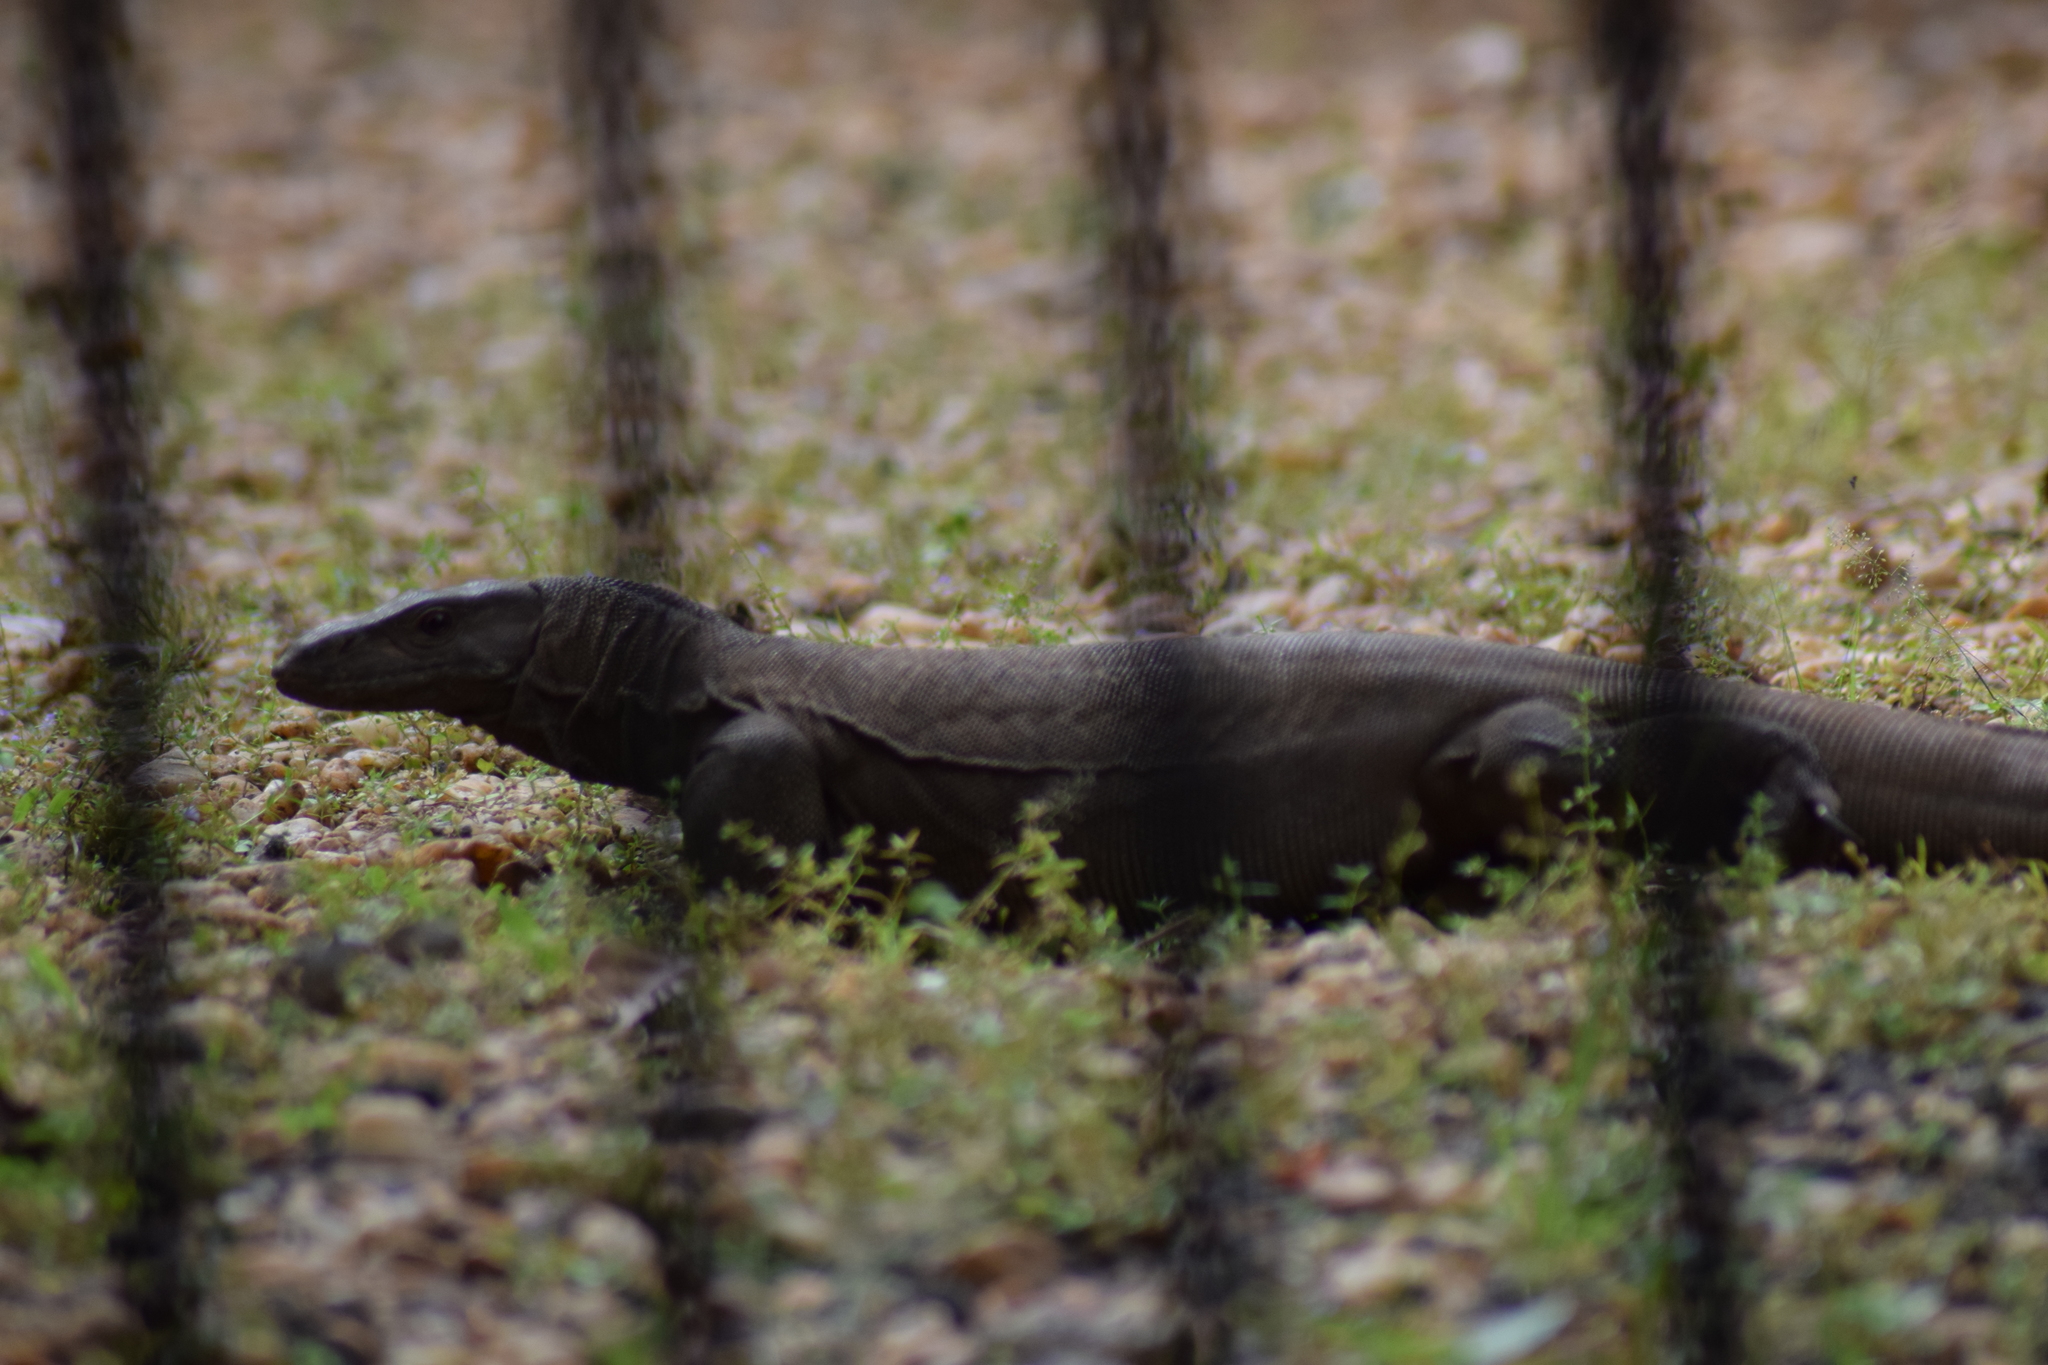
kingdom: Animalia
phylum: Chordata
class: Squamata
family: Varanidae
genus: Varanus
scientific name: Varanus bengalensis
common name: Bengal monitor
